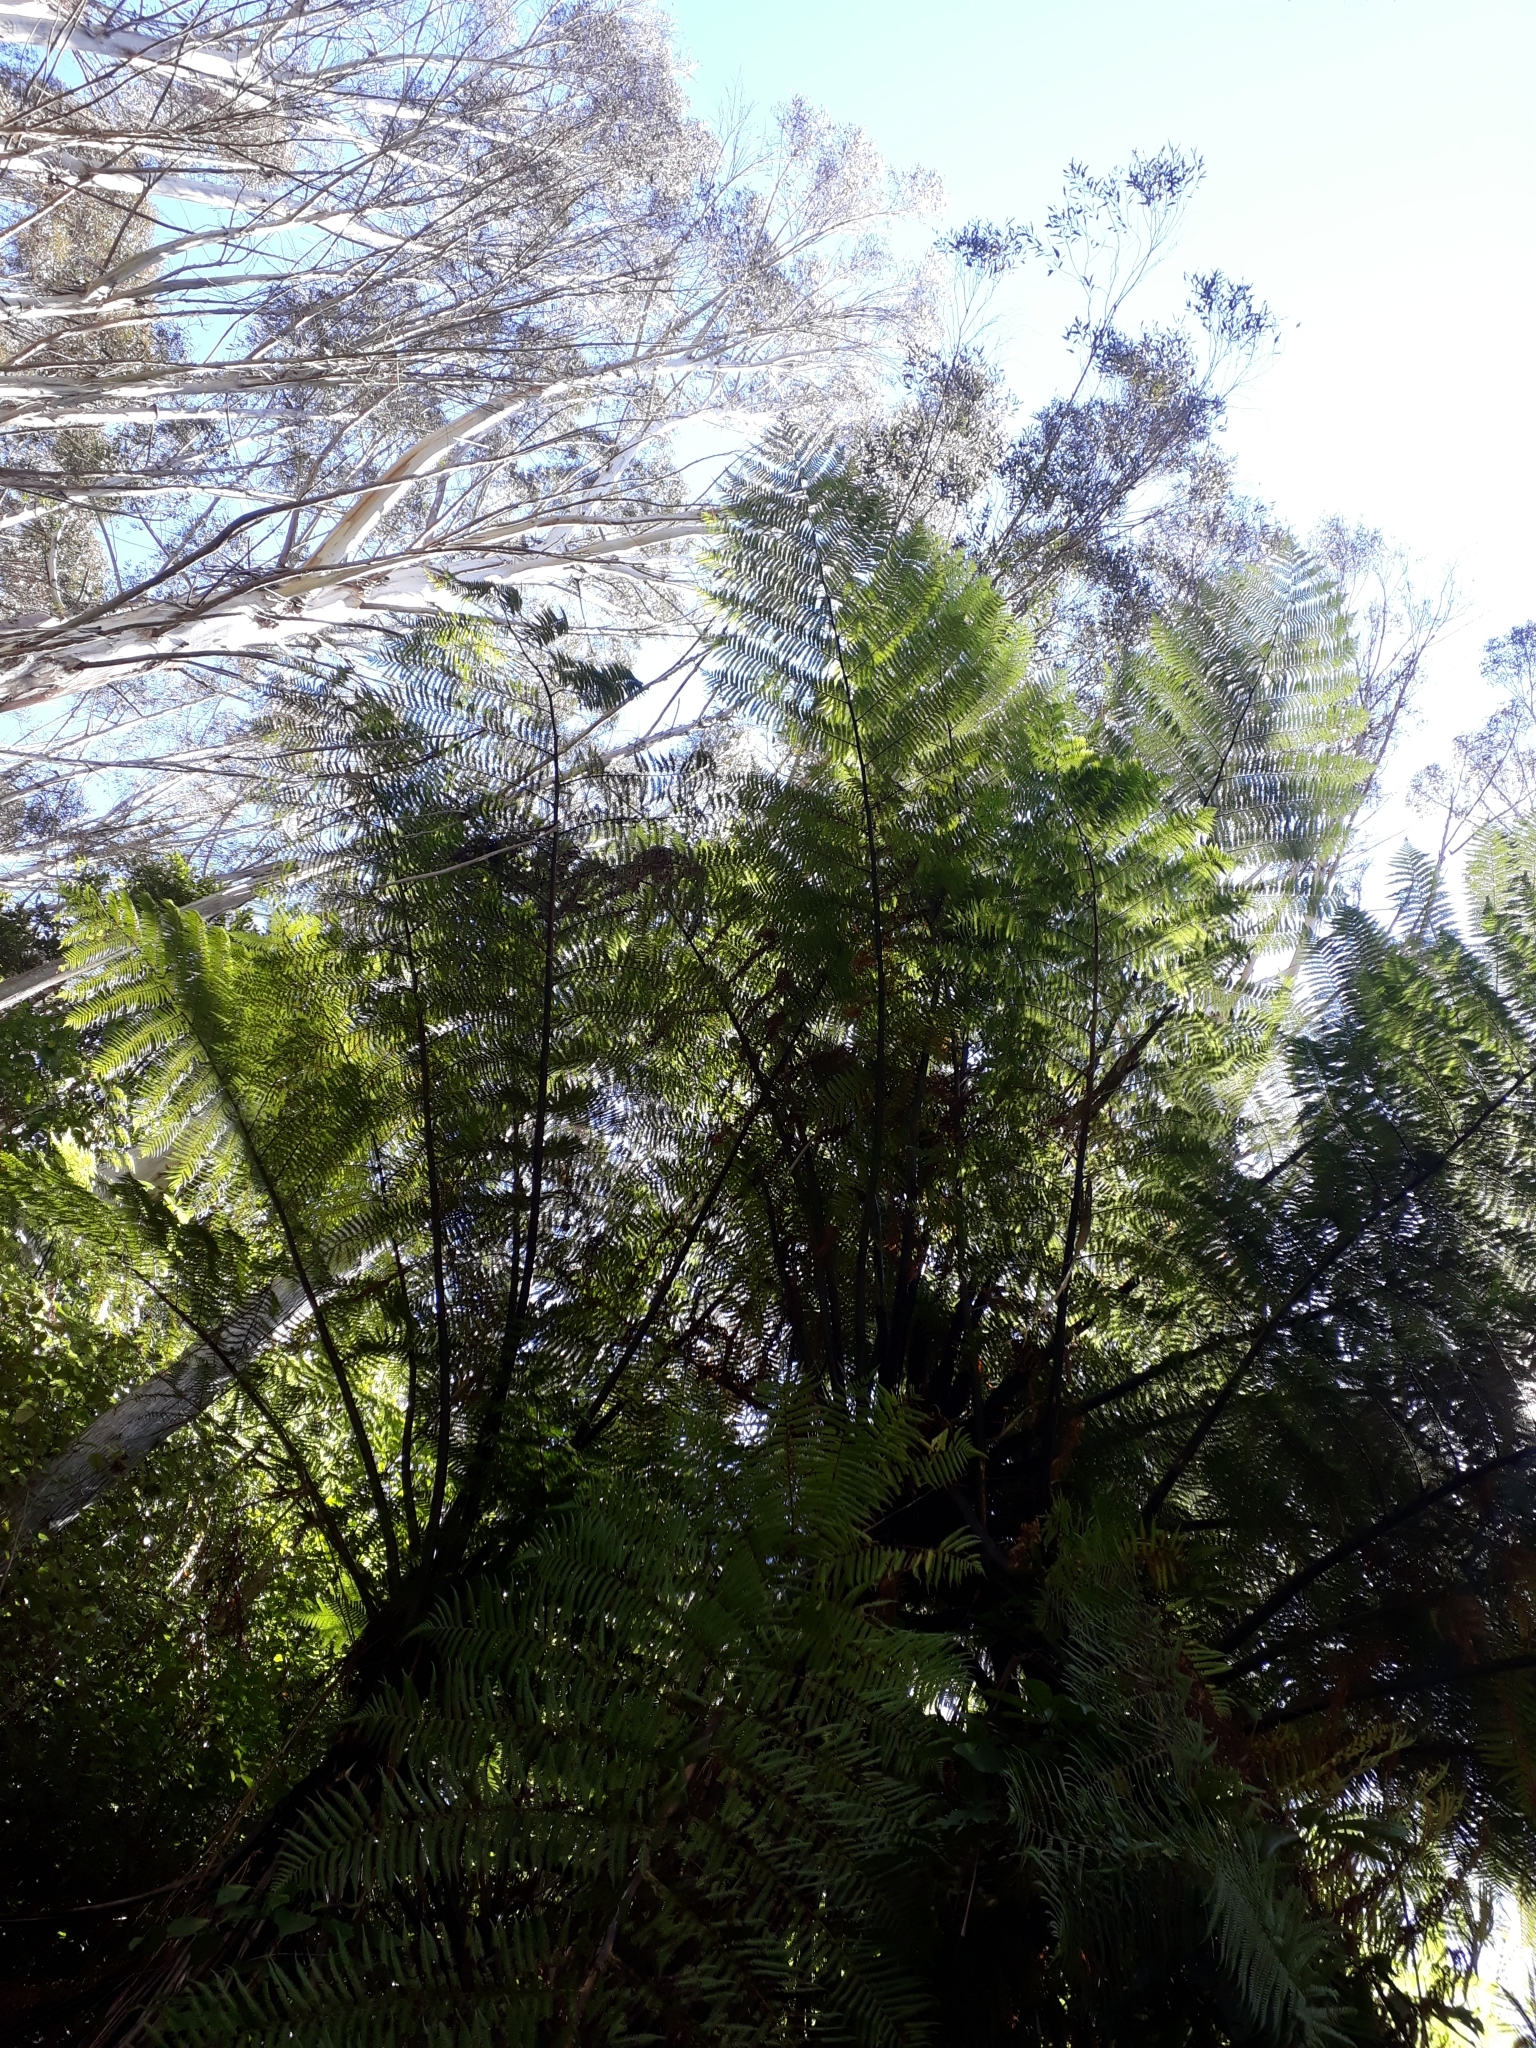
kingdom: Plantae
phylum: Tracheophyta
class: Polypodiopsida
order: Cyatheales
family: Cyatheaceae
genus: Sphaeropteris
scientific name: Sphaeropteris medullaris
